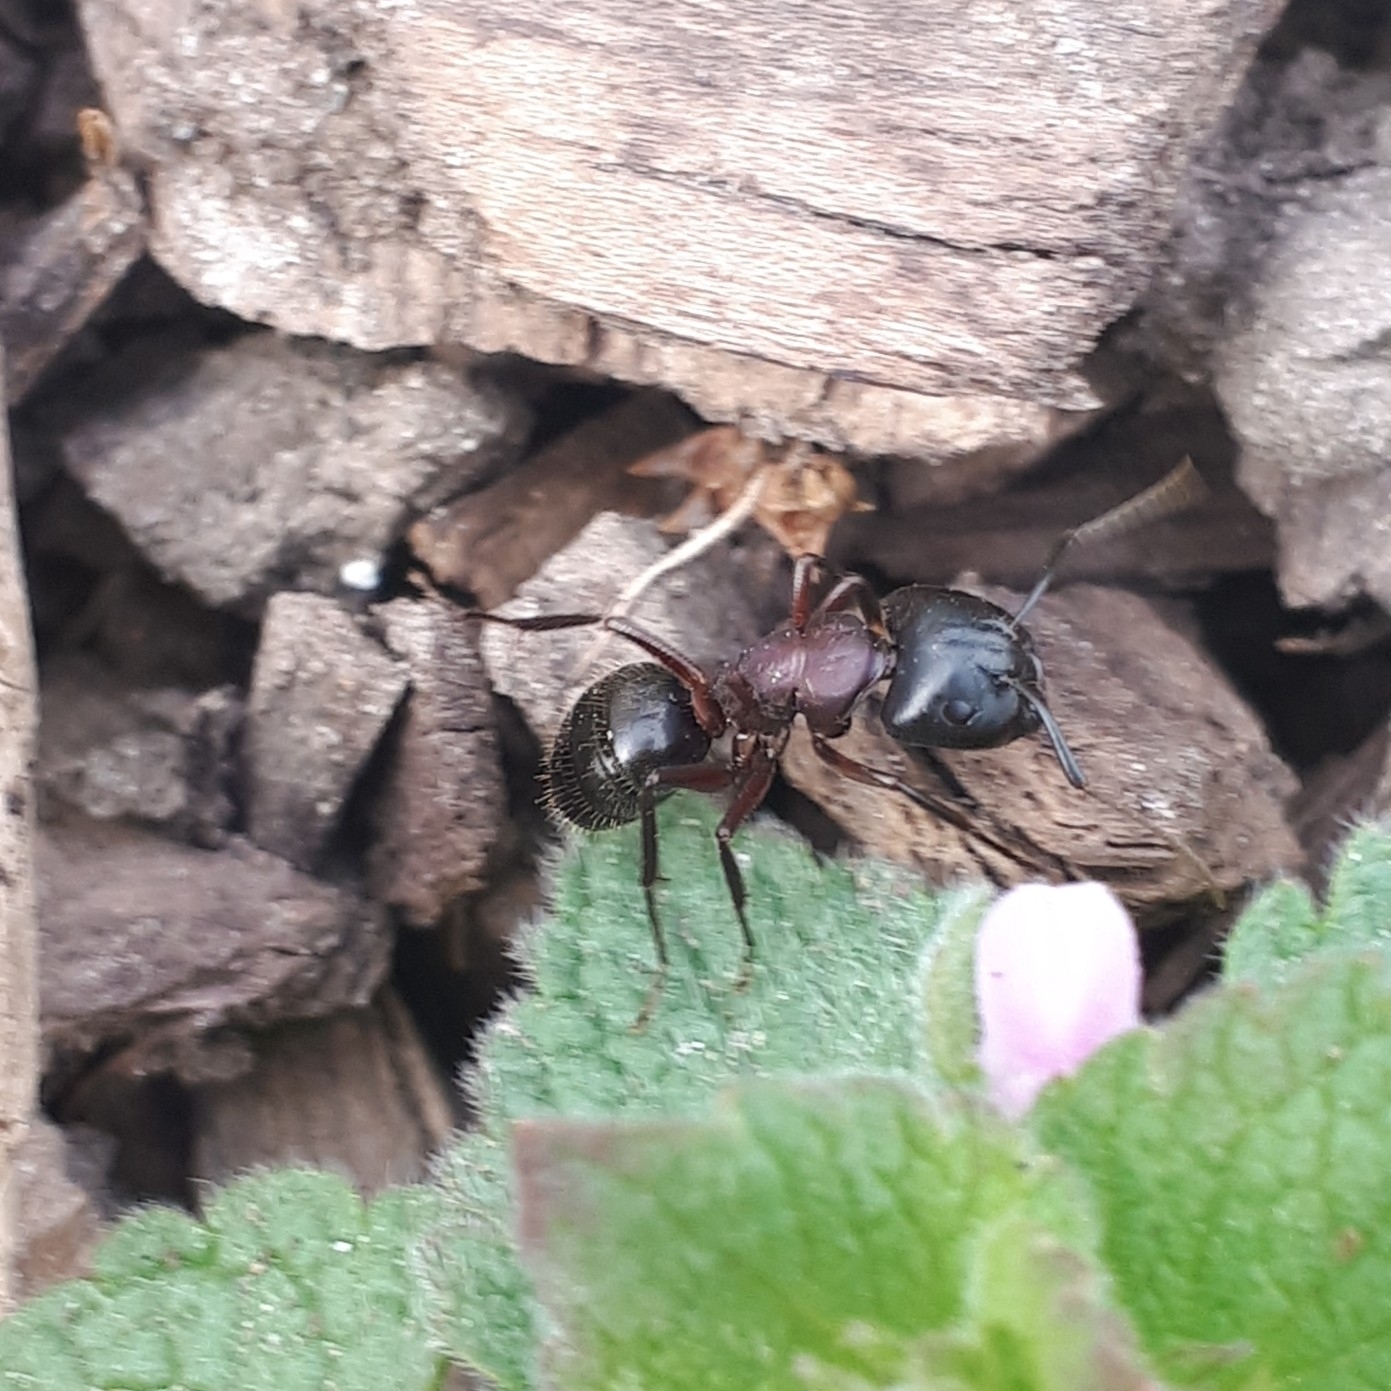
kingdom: Animalia
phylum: Arthropoda
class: Insecta
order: Hymenoptera
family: Formicidae
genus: Camponotus
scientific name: Camponotus novaeboracensis
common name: New york carpenter ant
